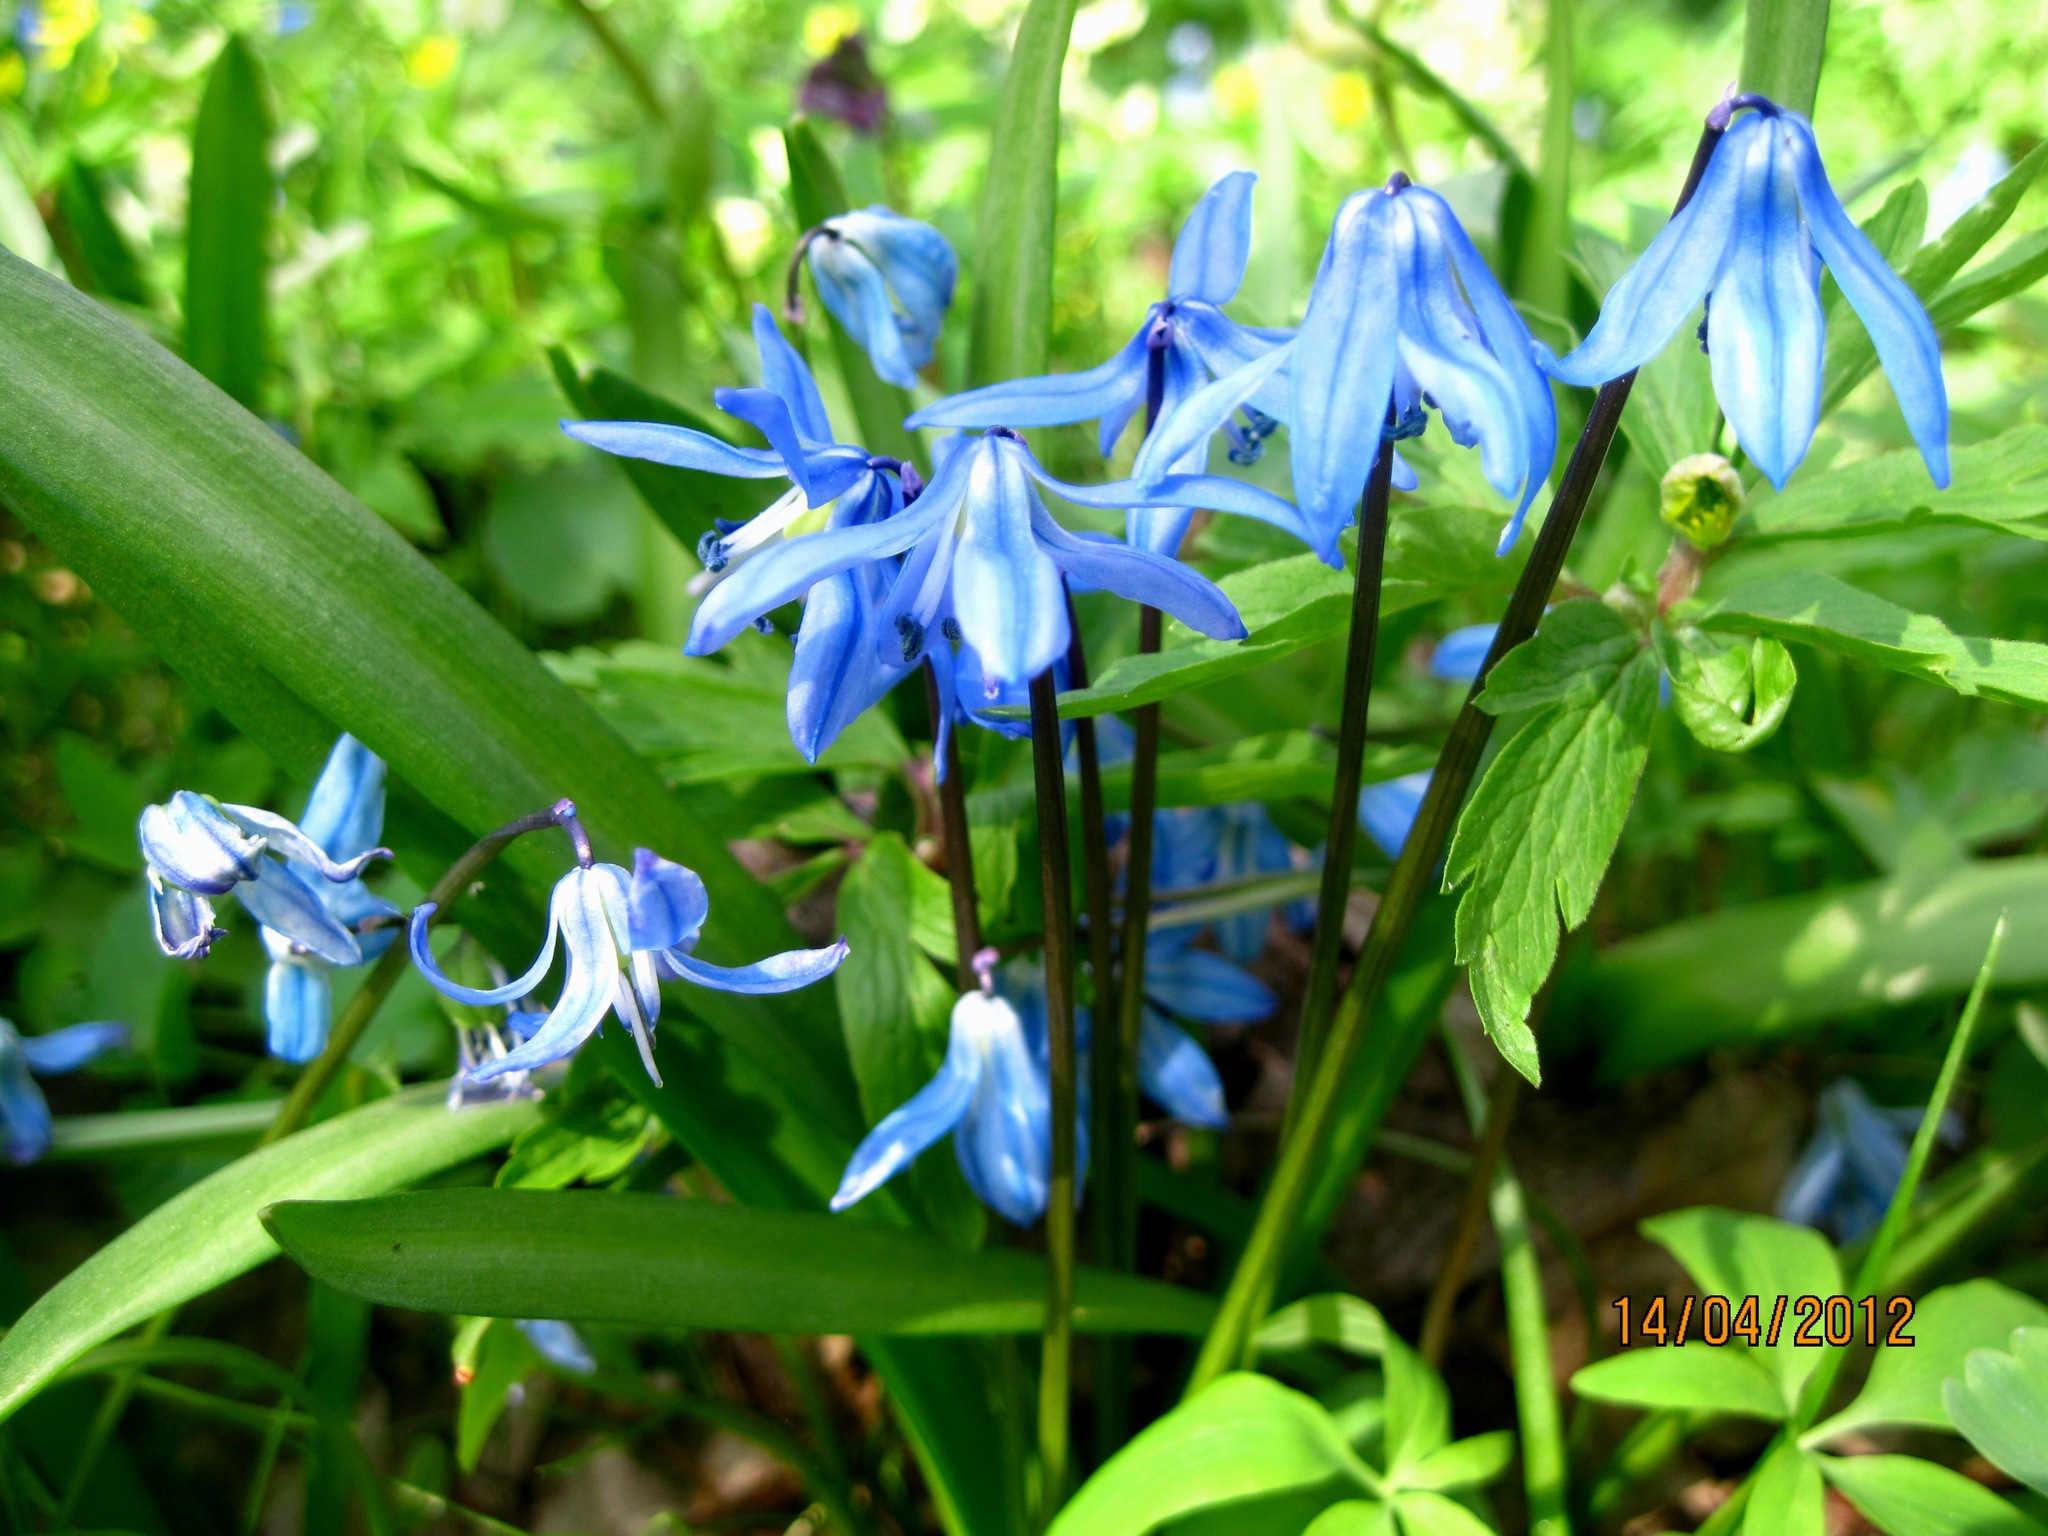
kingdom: Plantae
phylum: Tracheophyta
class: Liliopsida
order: Asparagales
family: Asparagaceae
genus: Scilla
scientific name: Scilla siberica
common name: Siberian squill
